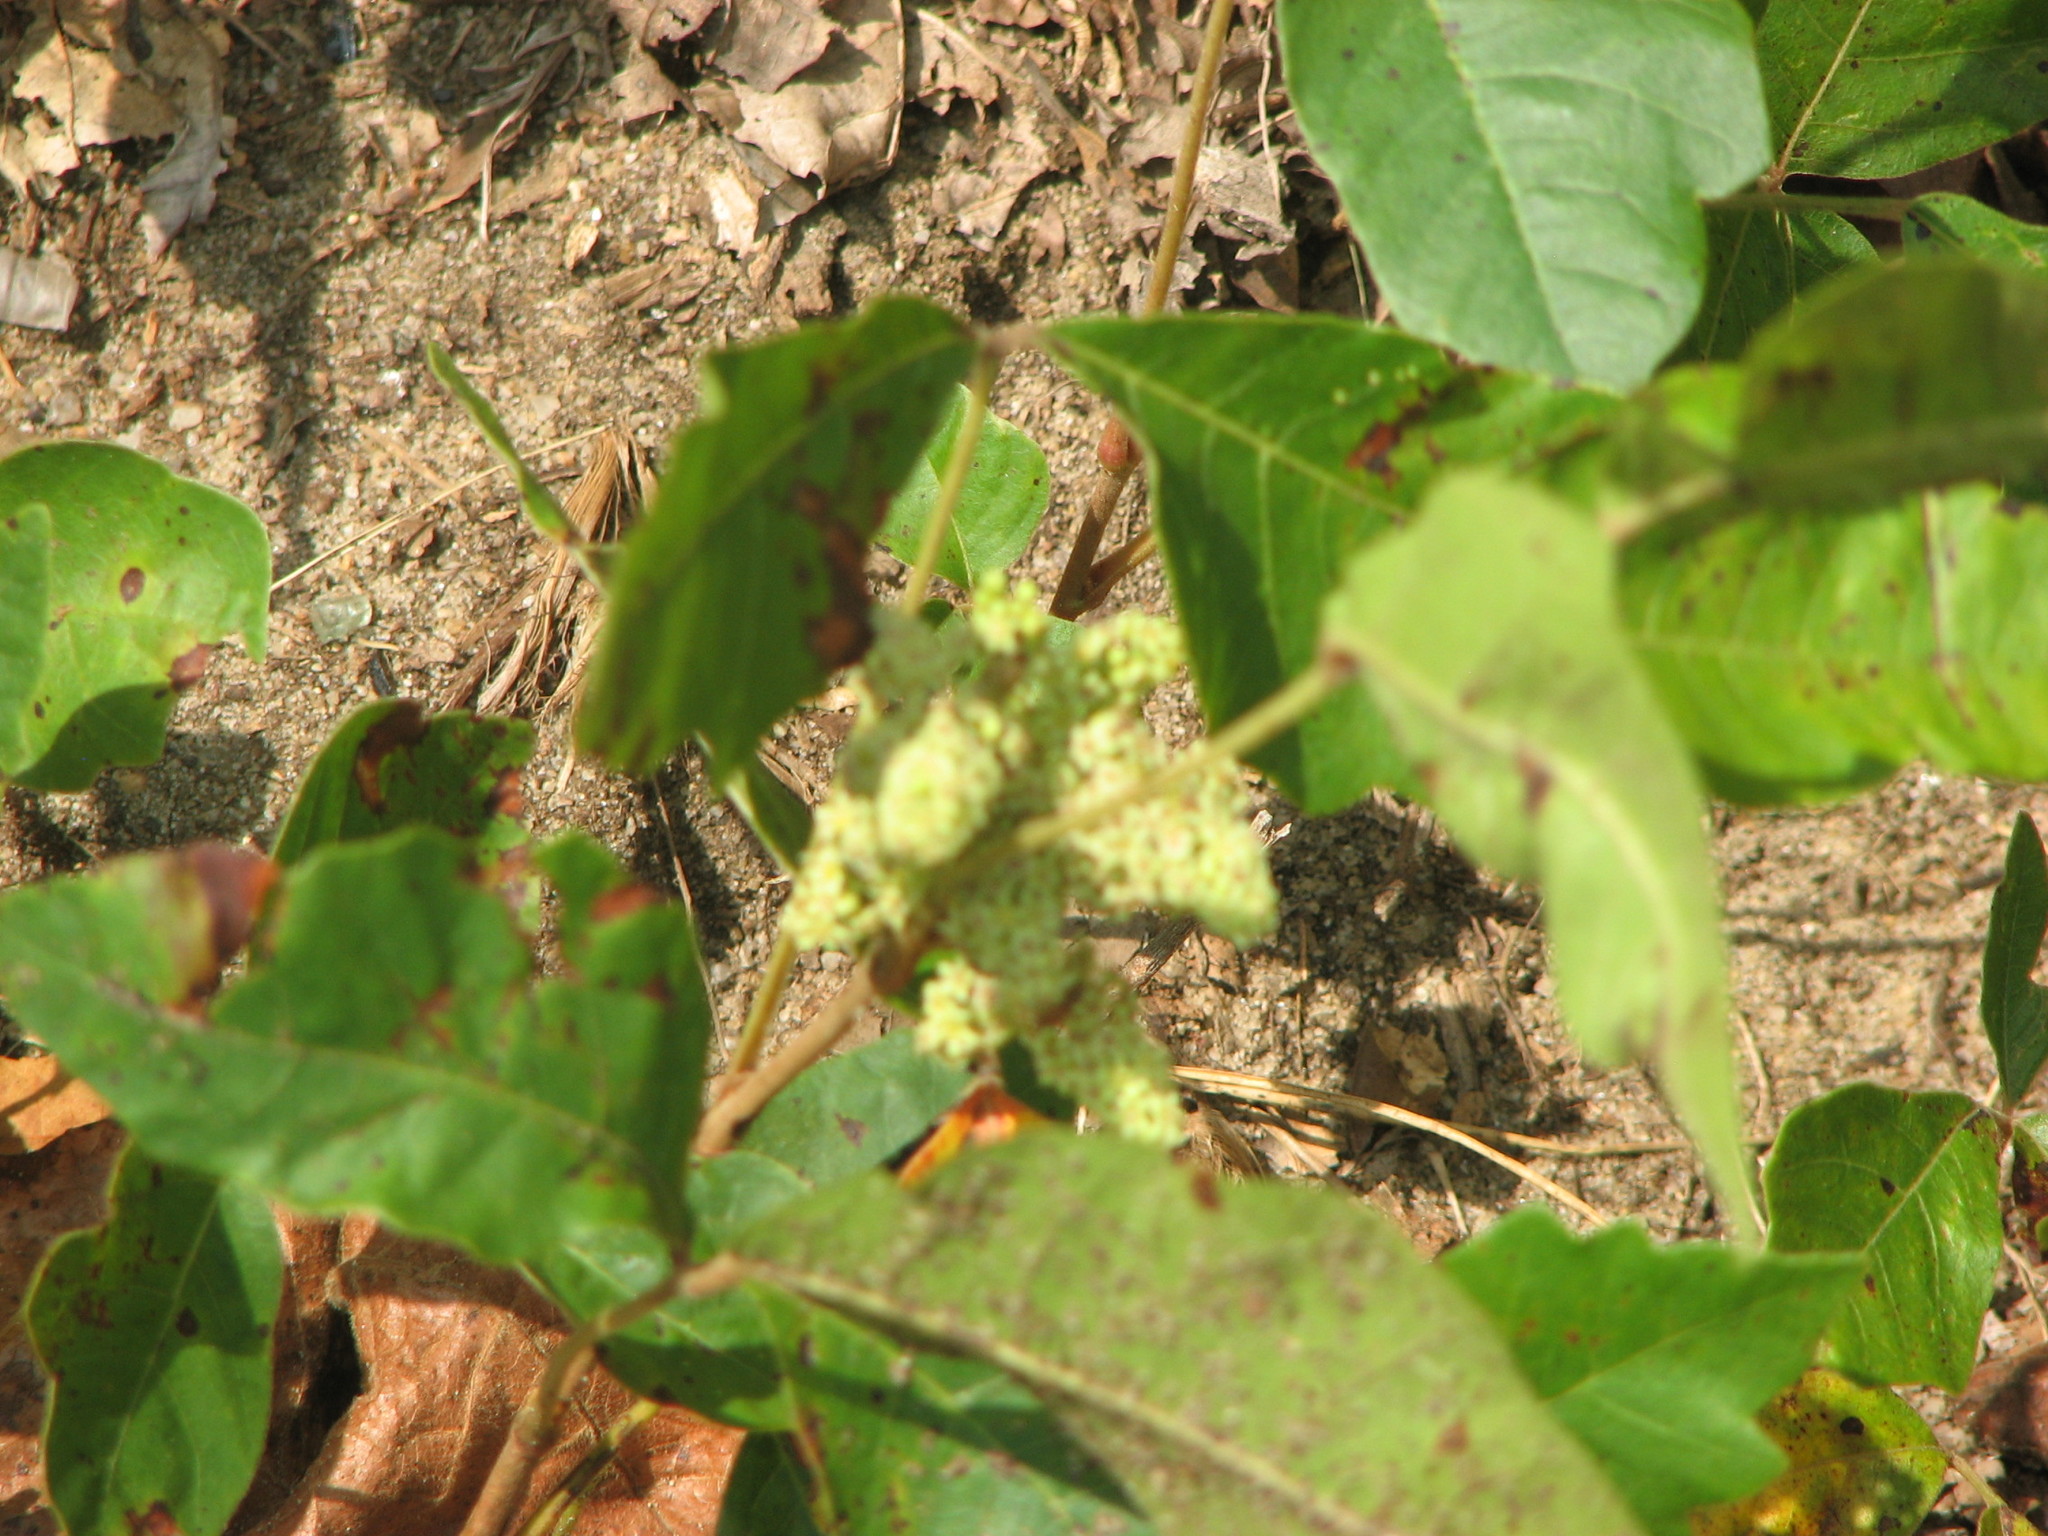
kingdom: Plantae
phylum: Tracheophyta
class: Magnoliopsida
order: Sapindales
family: Anacardiaceae
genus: Toxicodendron
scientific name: Toxicodendron pubescens
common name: Eastern poison-oak
